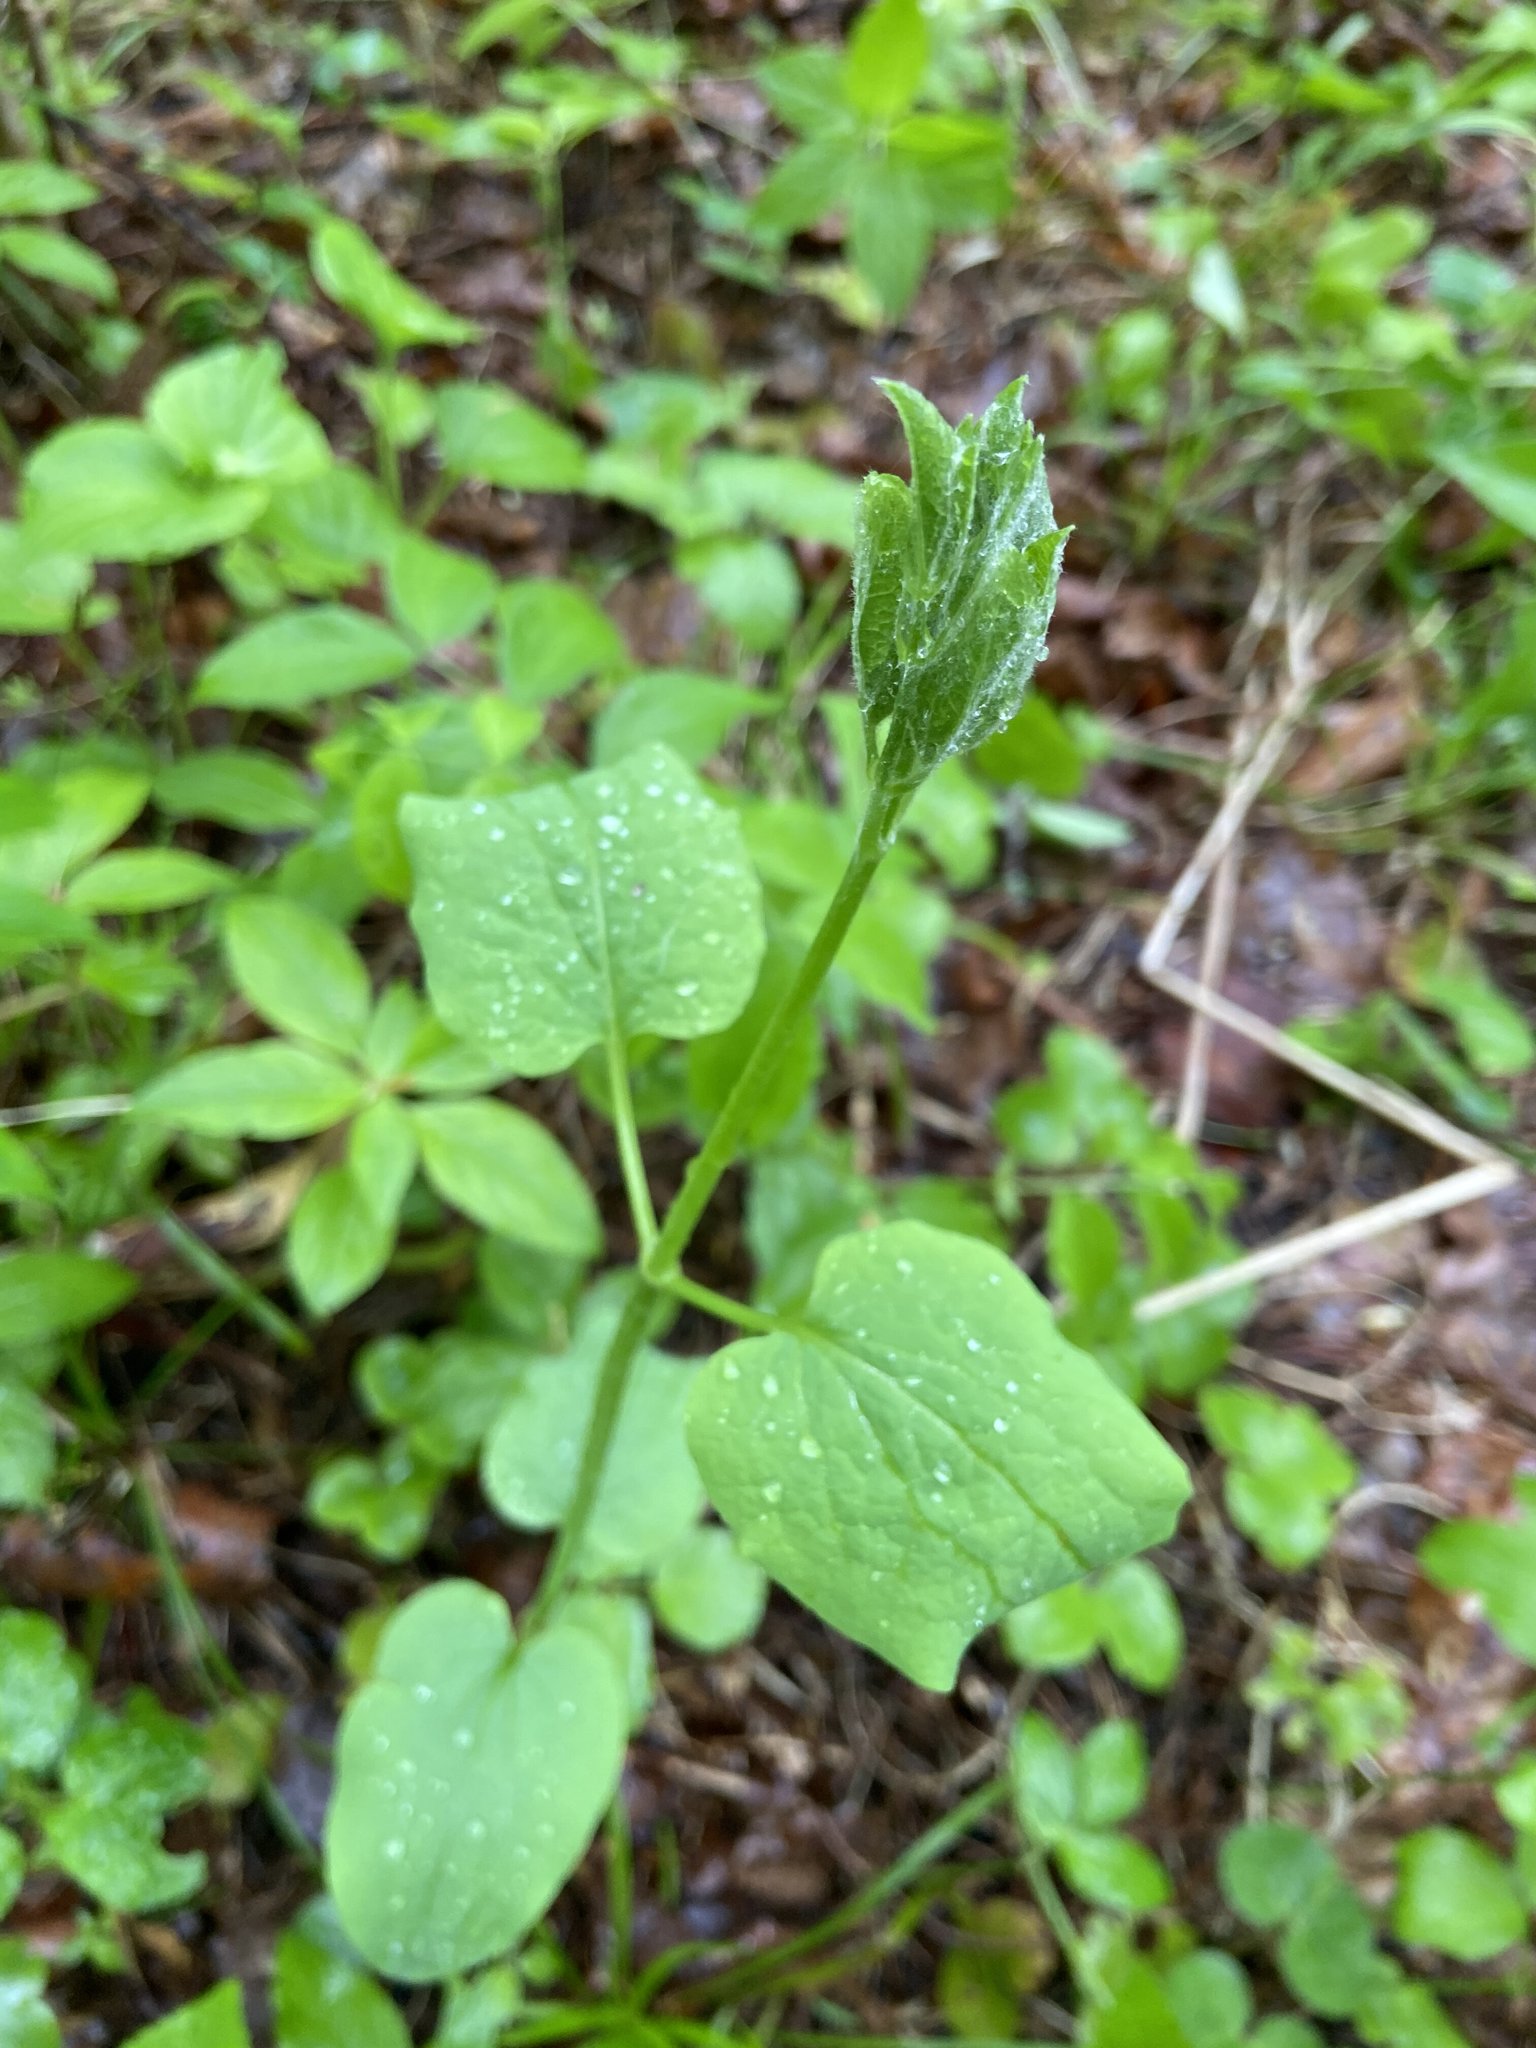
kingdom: Plantae
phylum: Tracheophyta
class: Magnoliopsida
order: Ranunculales
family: Ranunculaceae
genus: Clematis
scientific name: Clematis recta
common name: Ground clematis
